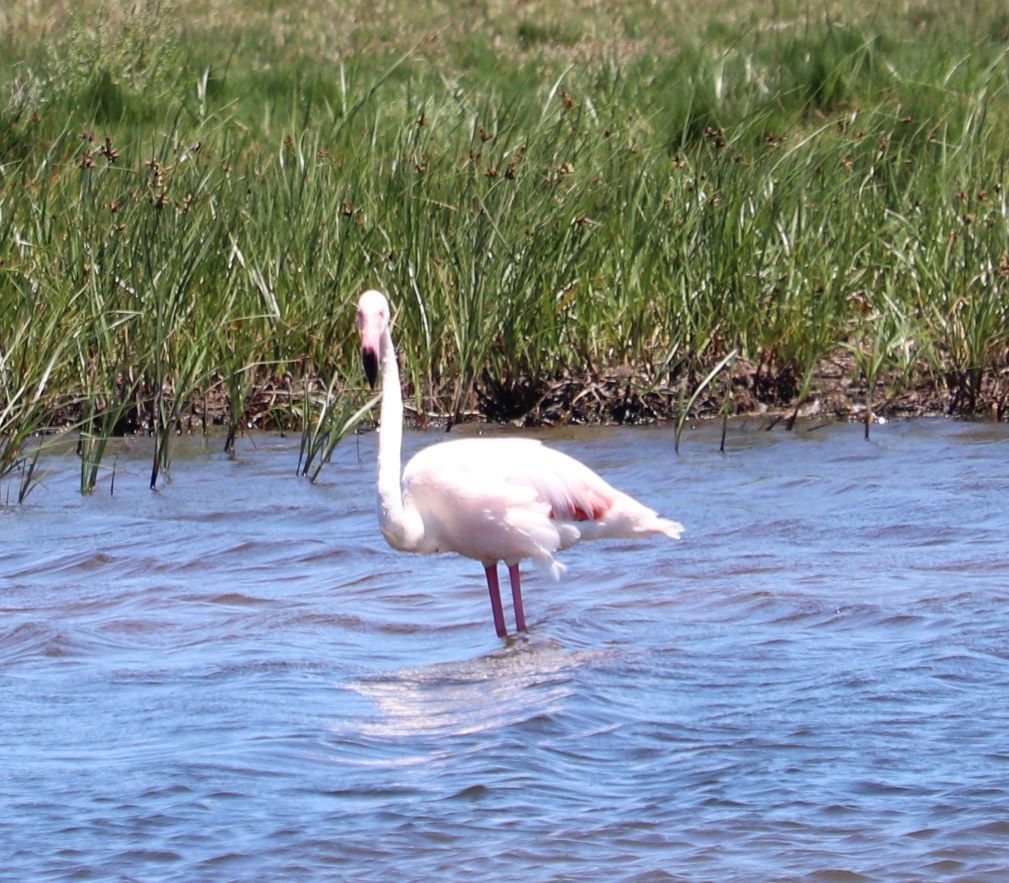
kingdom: Animalia
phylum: Chordata
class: Aves
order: Phoenicopteriformes
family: Phoenicopteridae
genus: Phoenicopterus
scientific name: Phoenicopterus roseus
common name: Greater flamingo
